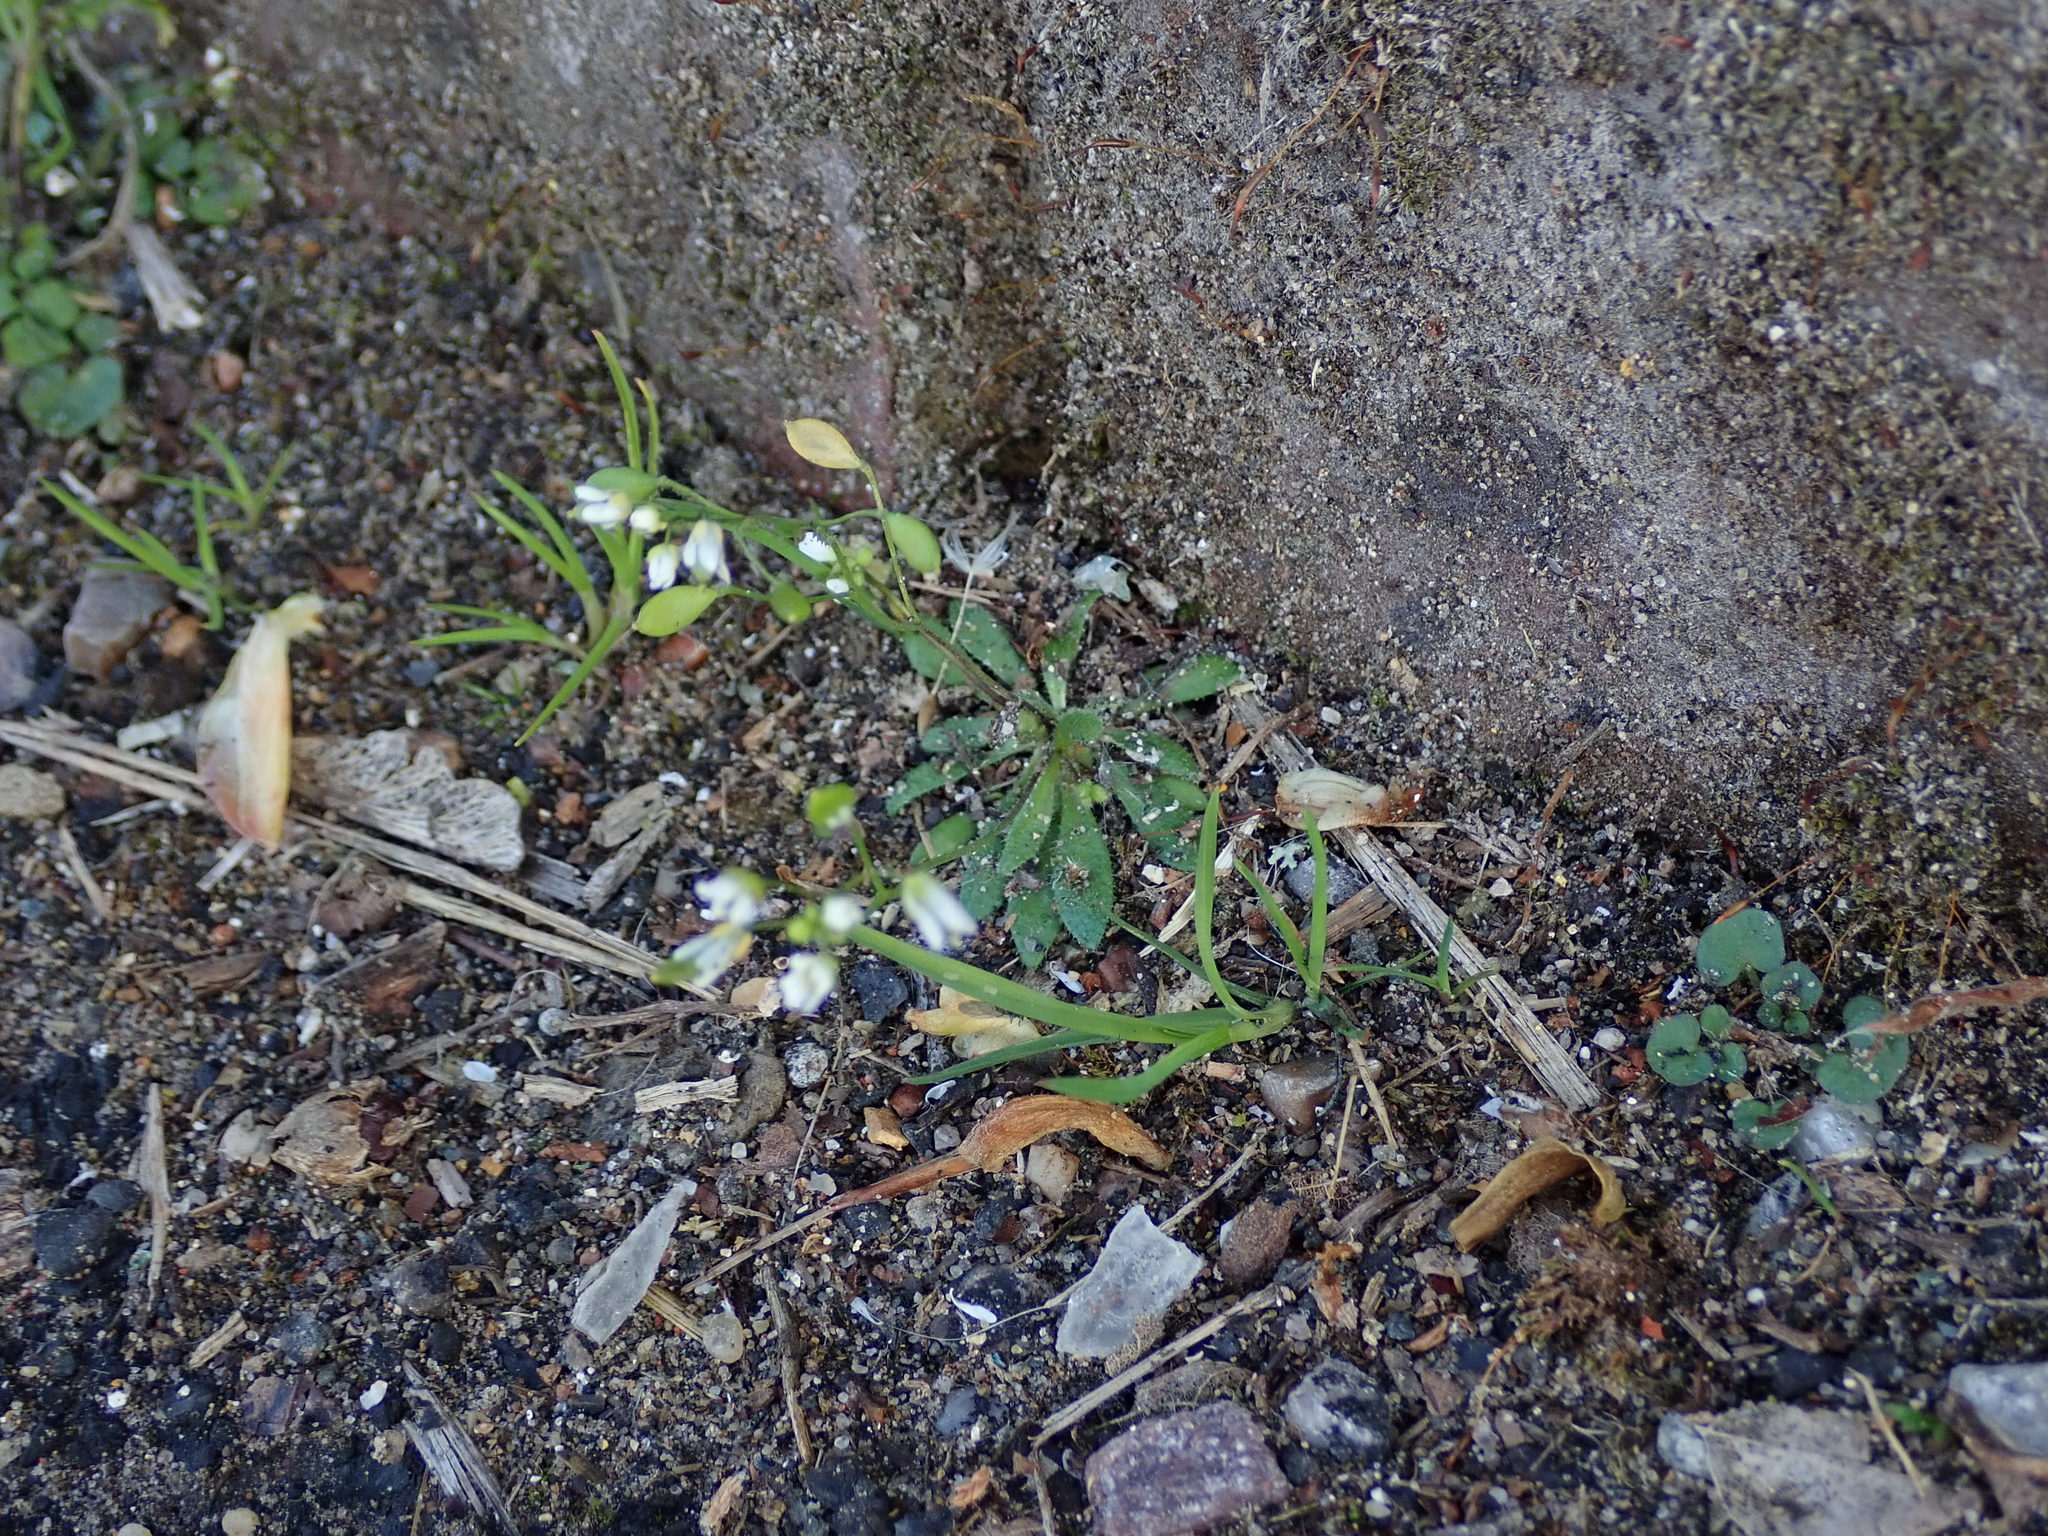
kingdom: Plantae
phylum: Tracheophyta
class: Magnoliopsida
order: Brassicales
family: Brassicaceae
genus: Draba
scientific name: Draba verna
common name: Spring draba
